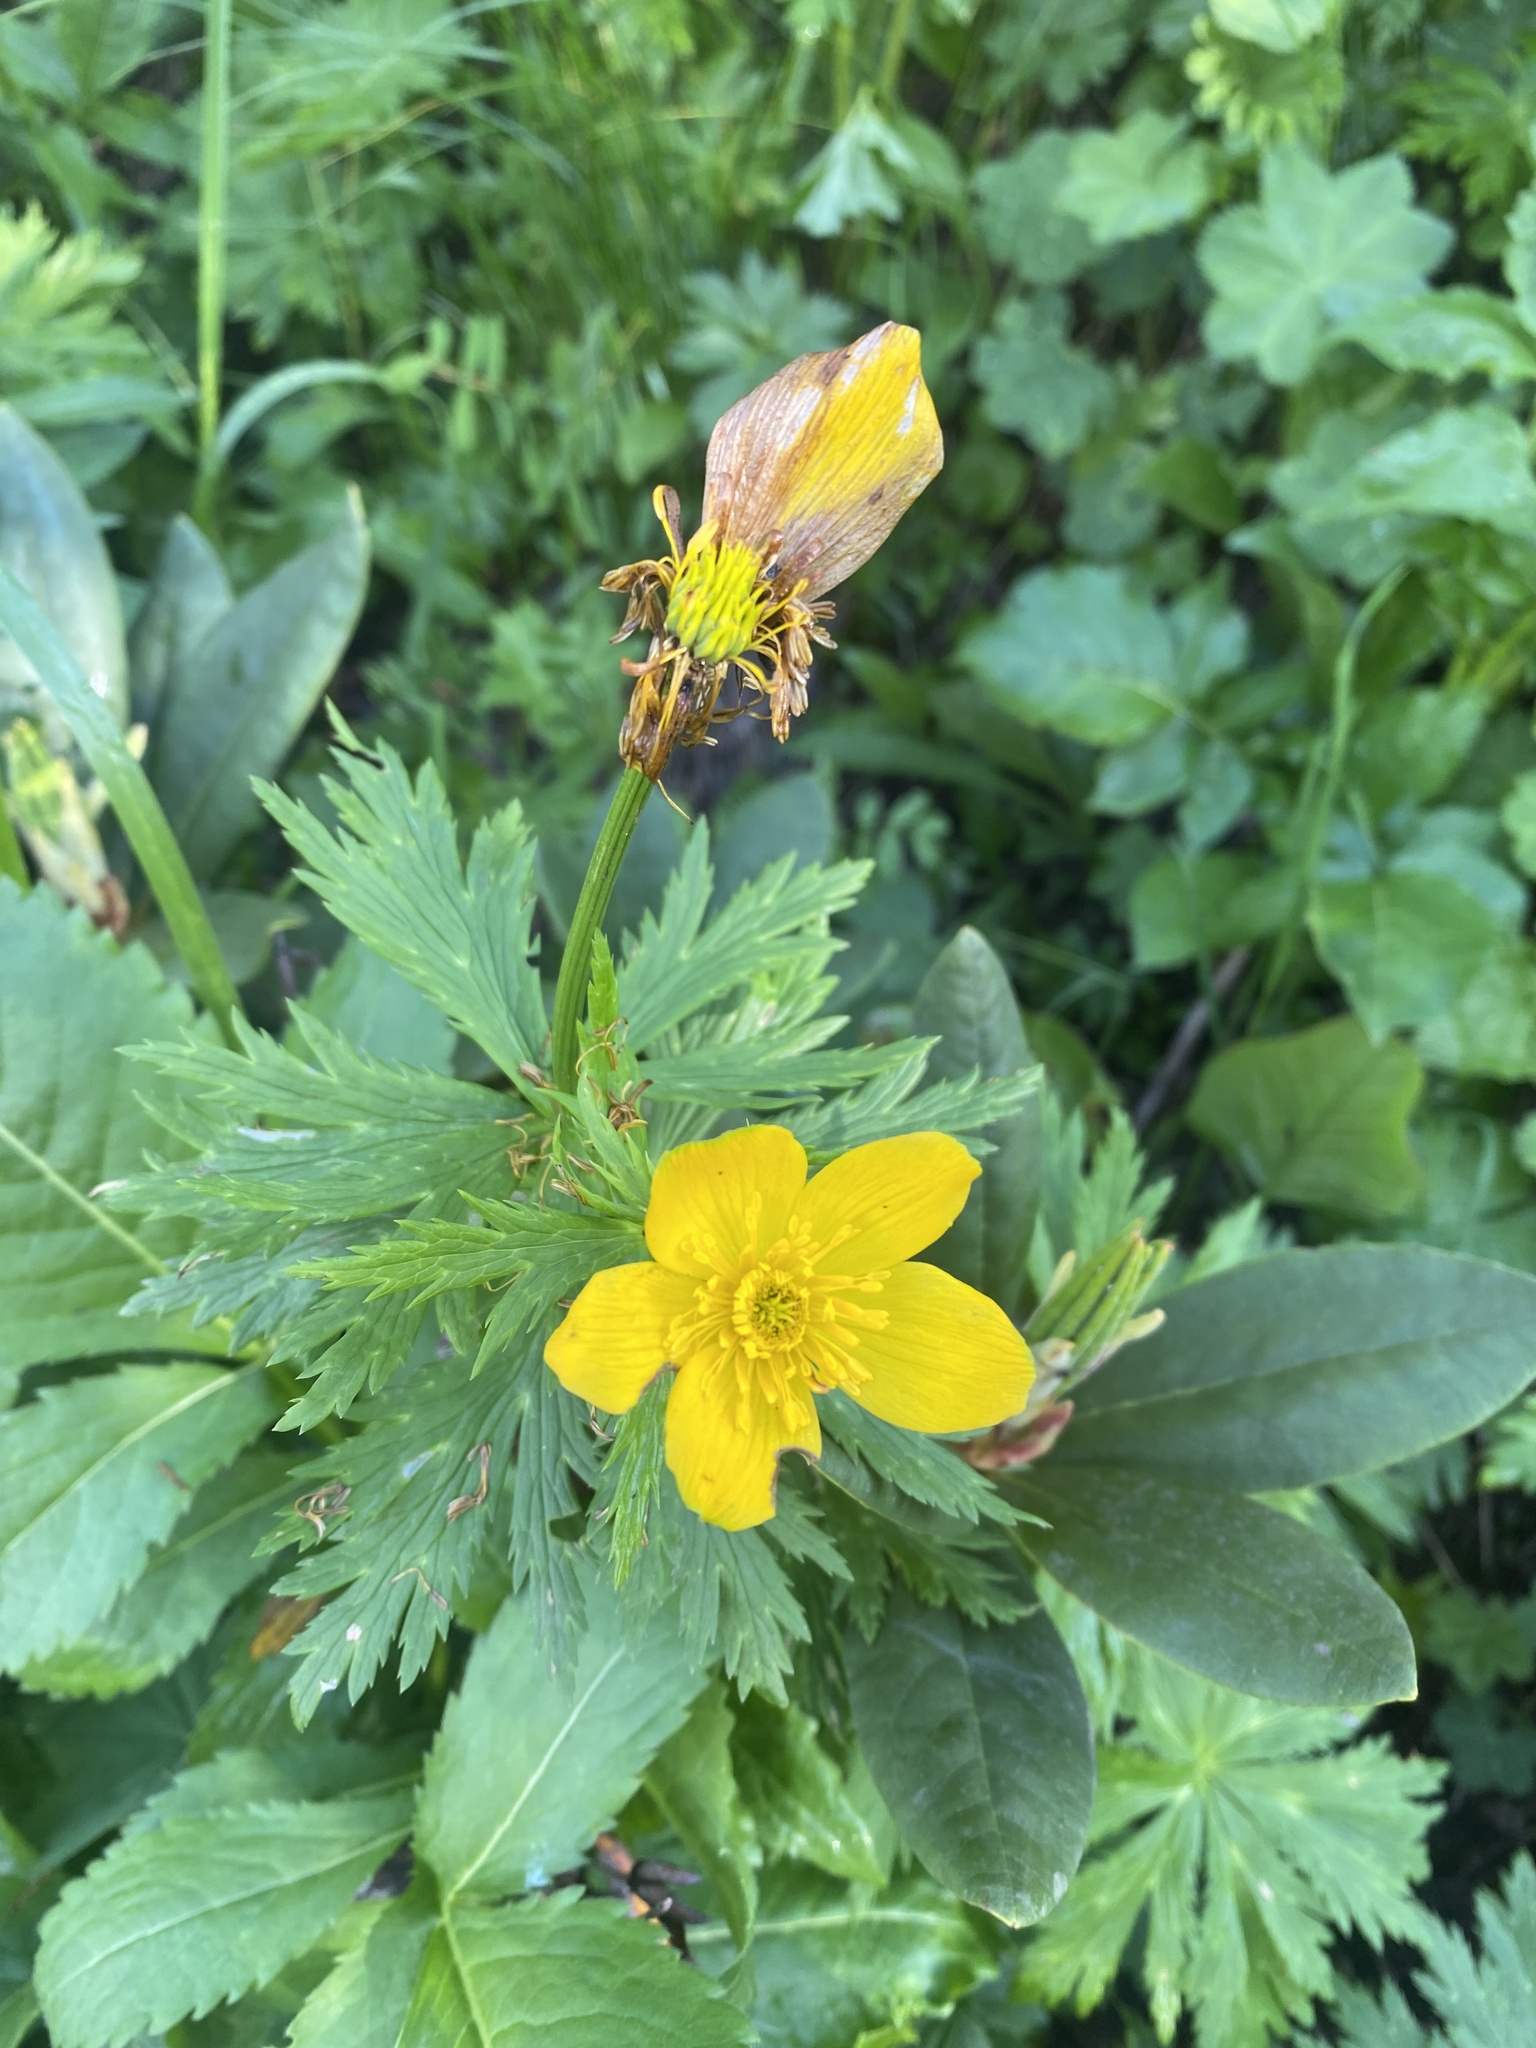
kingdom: Plantae
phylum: Tracheophyta
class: Magnoliopsida
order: Ranunculales
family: Ranunculaceae
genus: Trollius
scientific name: Trollius ranunculinus
